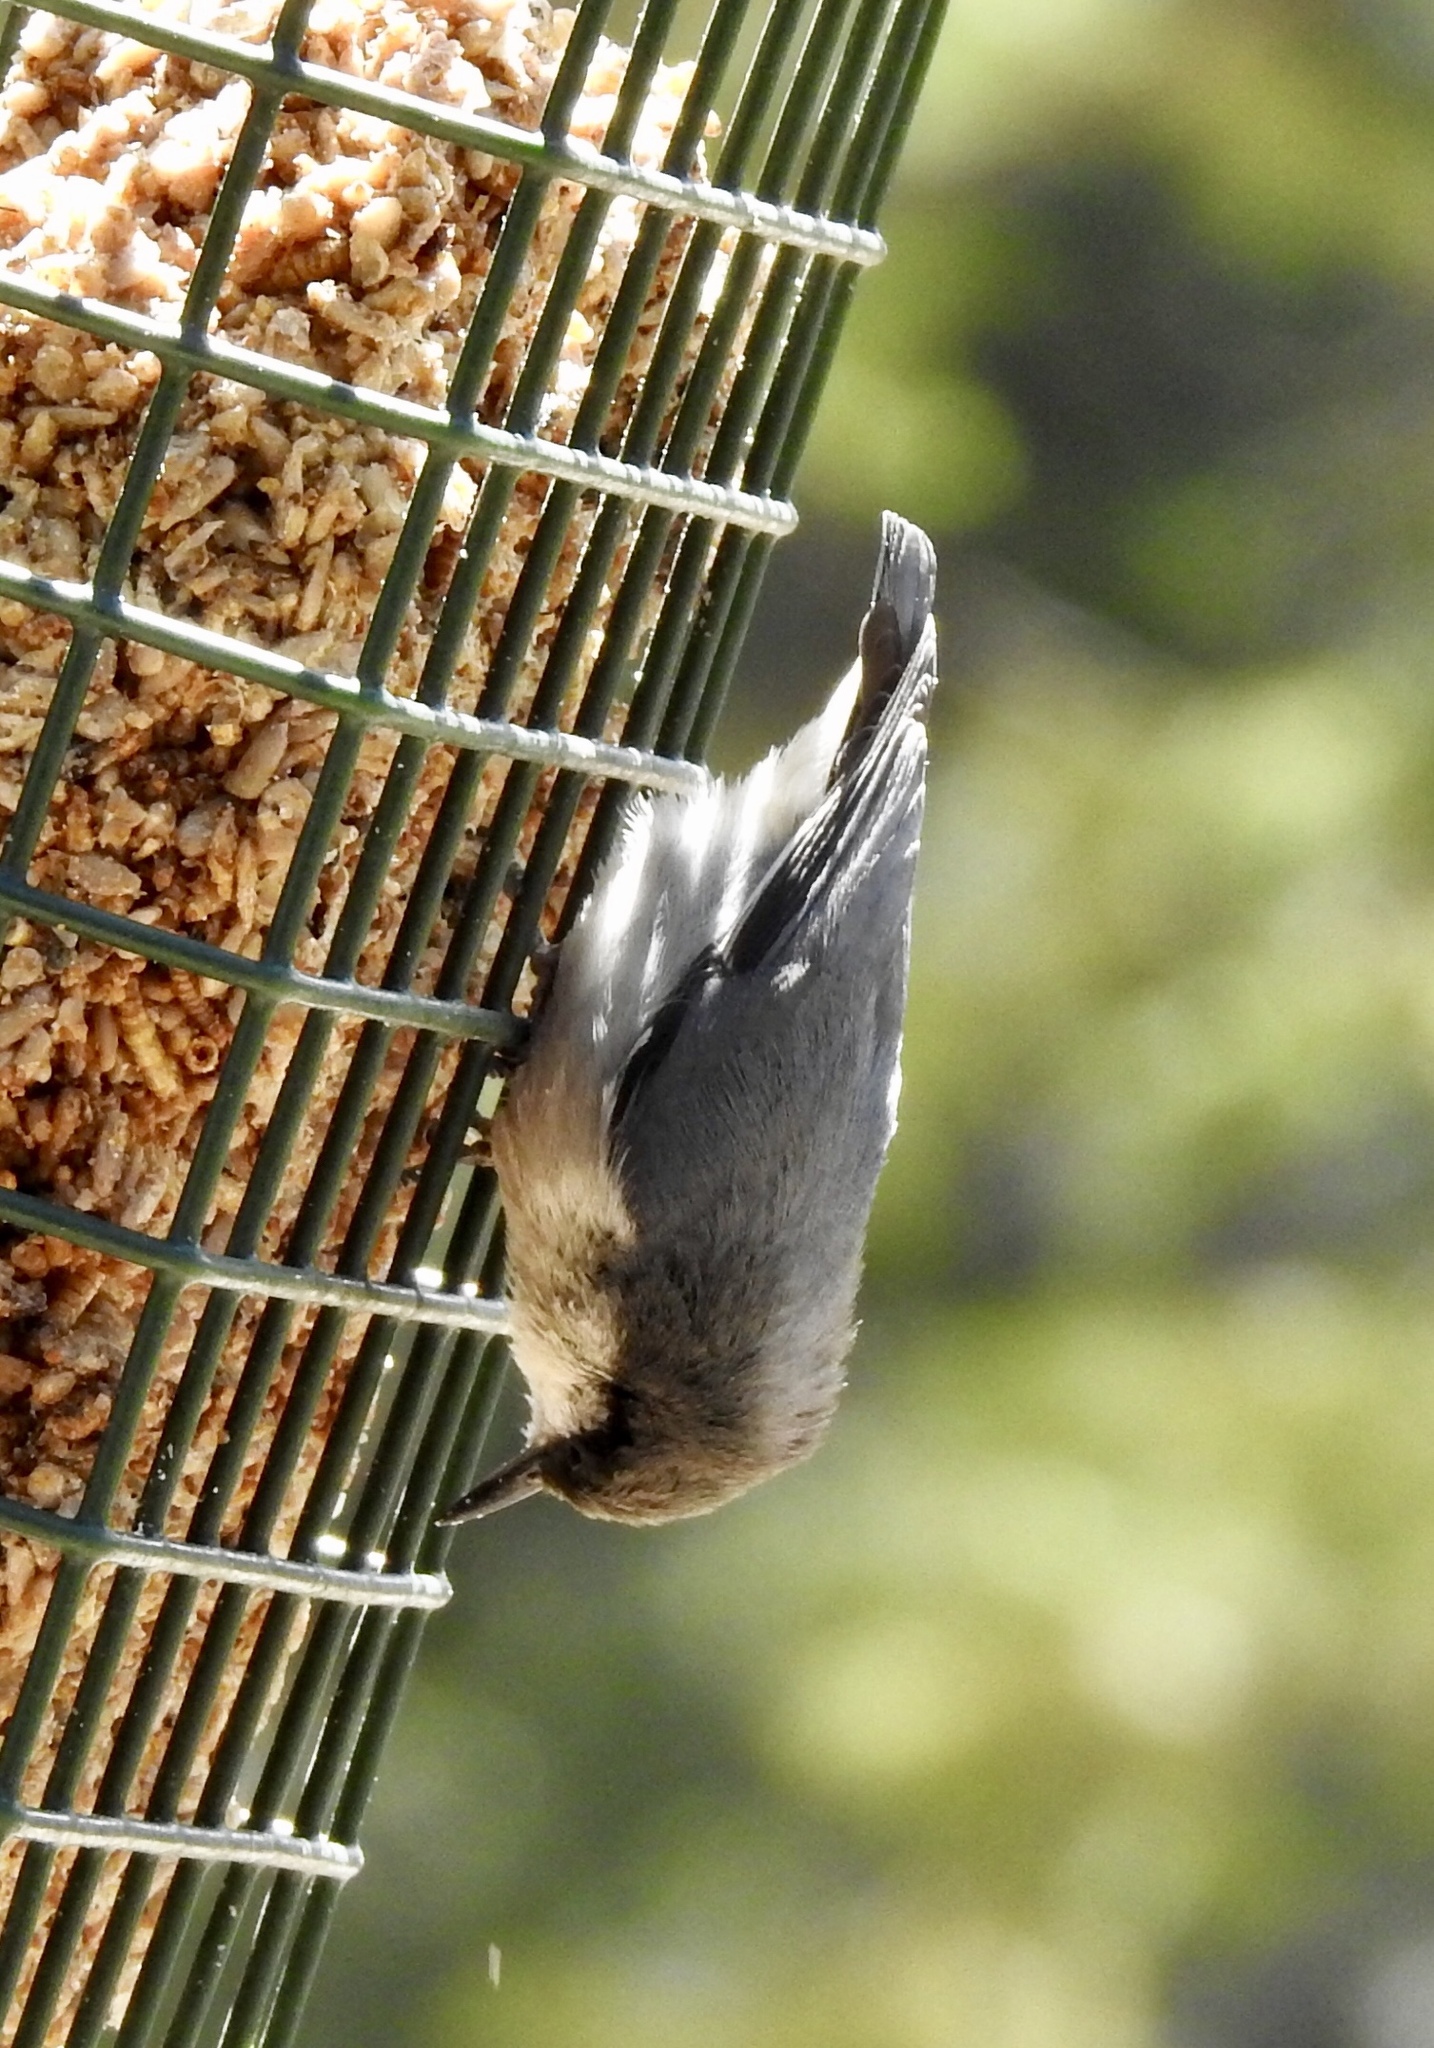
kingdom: Animalia
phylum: Chordata
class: Aves
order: Passeriformes
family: Sittidae
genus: Sitta
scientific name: Sitta pygmaea
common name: Pygmy nuthatch
